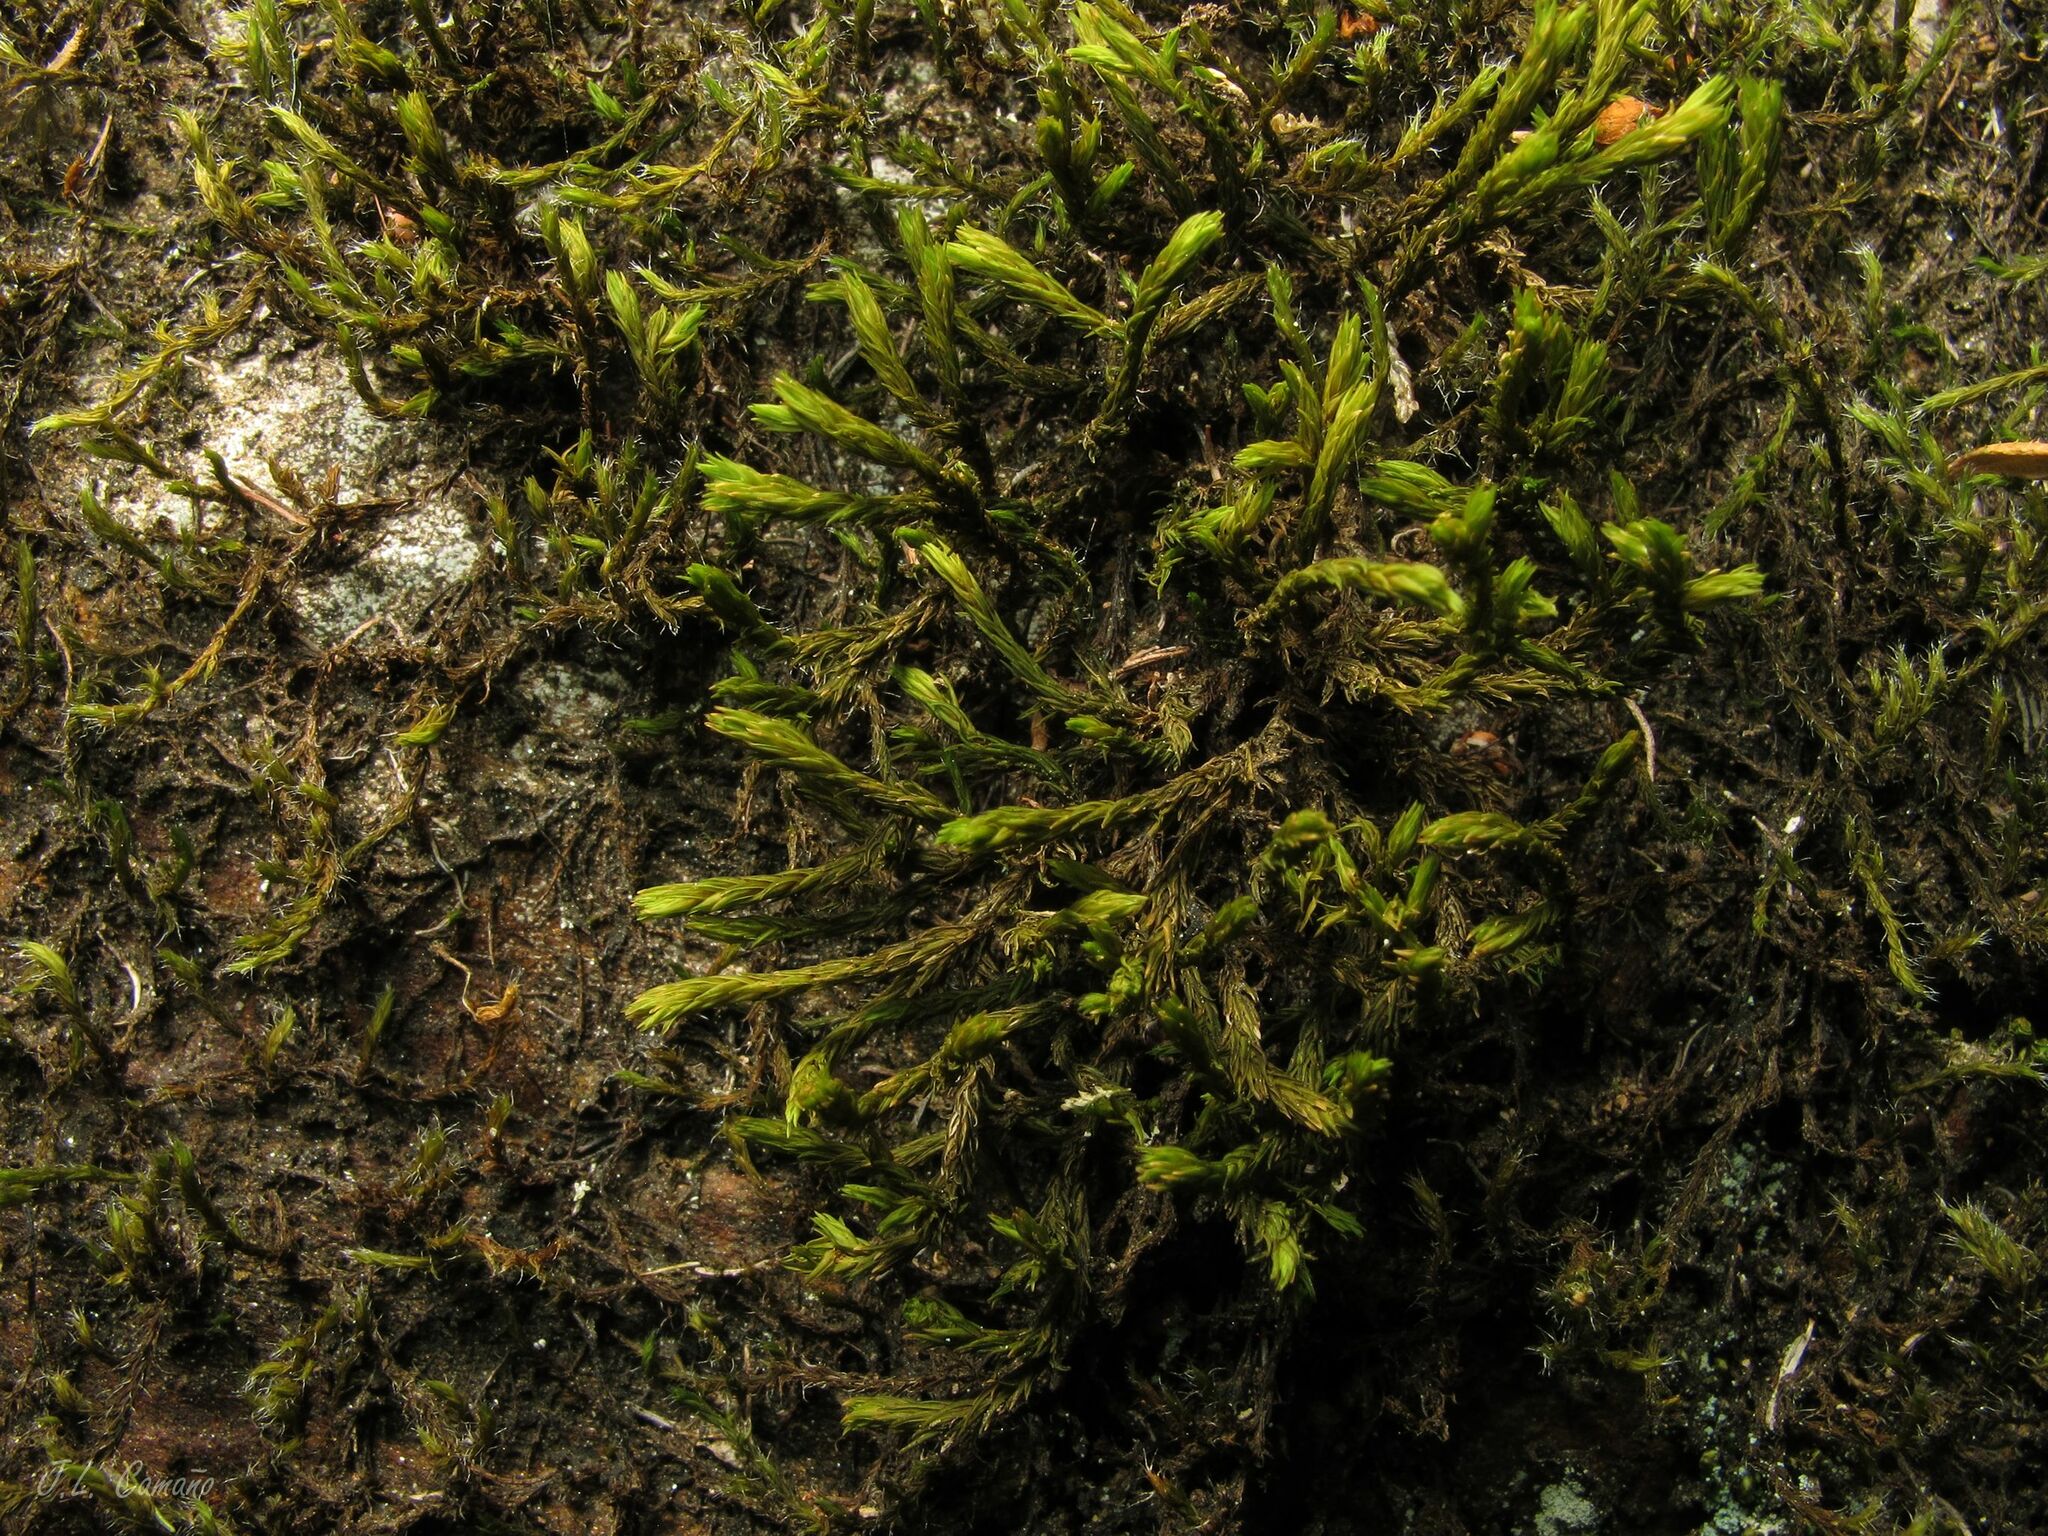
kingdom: Plantae
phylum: Bryophyta
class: Bryopsida
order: Grimmiales
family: Grimmiaceae
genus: Codriophorus
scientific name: Codriophorus aquaticus
